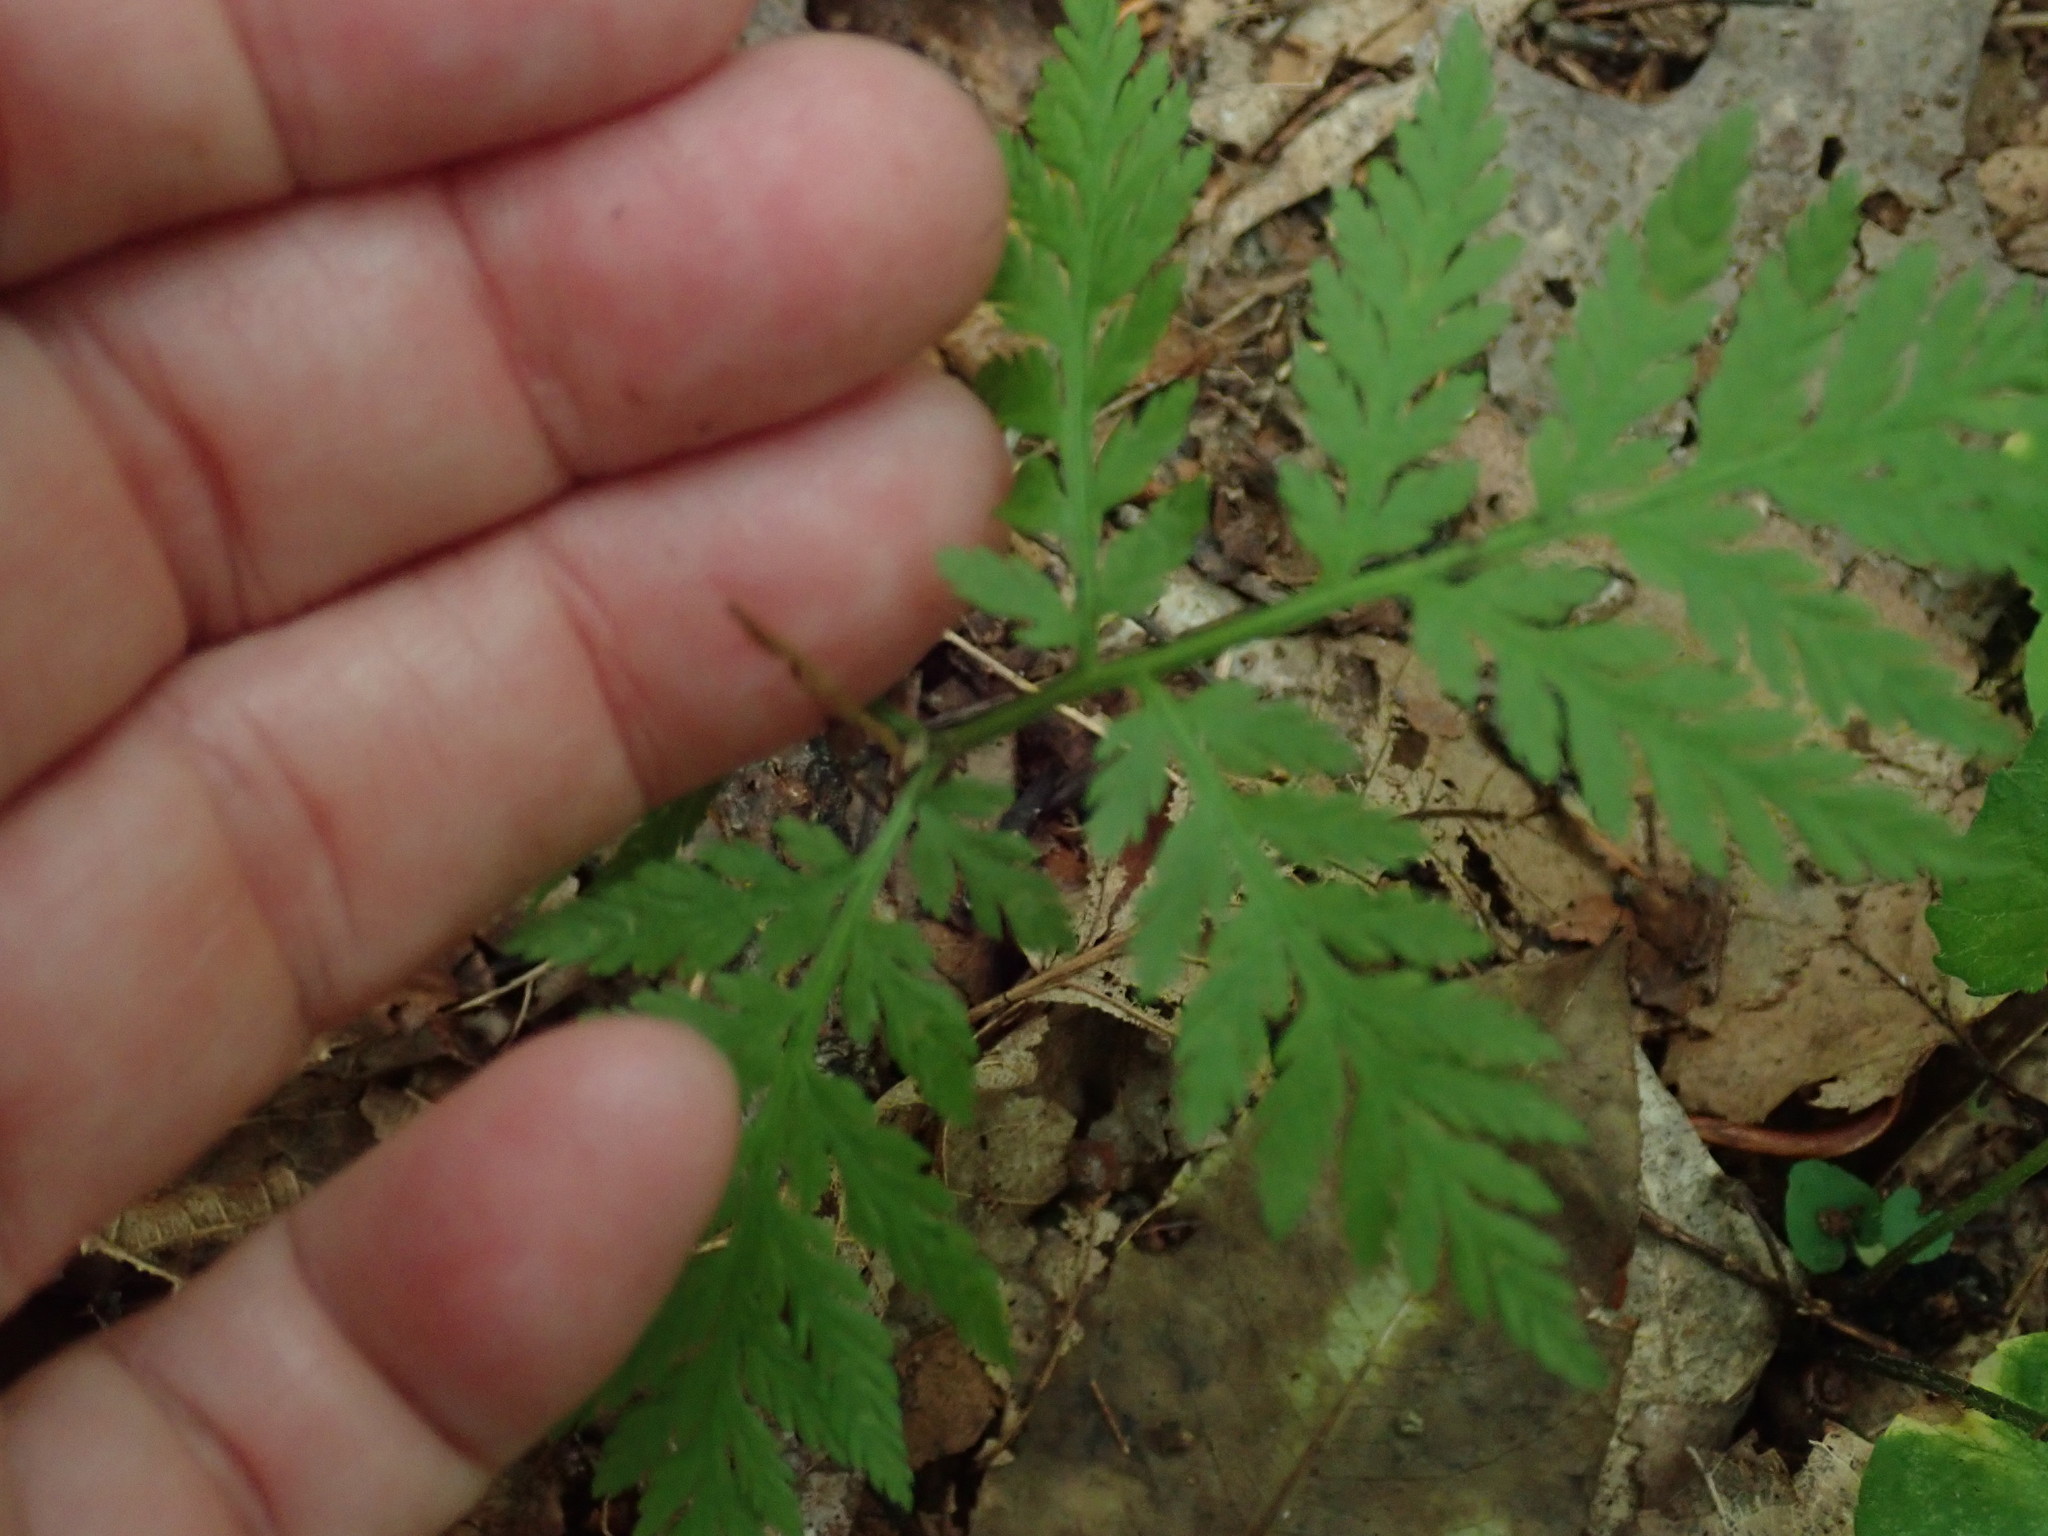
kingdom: Plantae
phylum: Tracheophyta
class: Polypodiopsida
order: Ophioglossales
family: Ophioglossaceae
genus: Botrypus
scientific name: Botrypus virginianus
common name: Common grapefern
